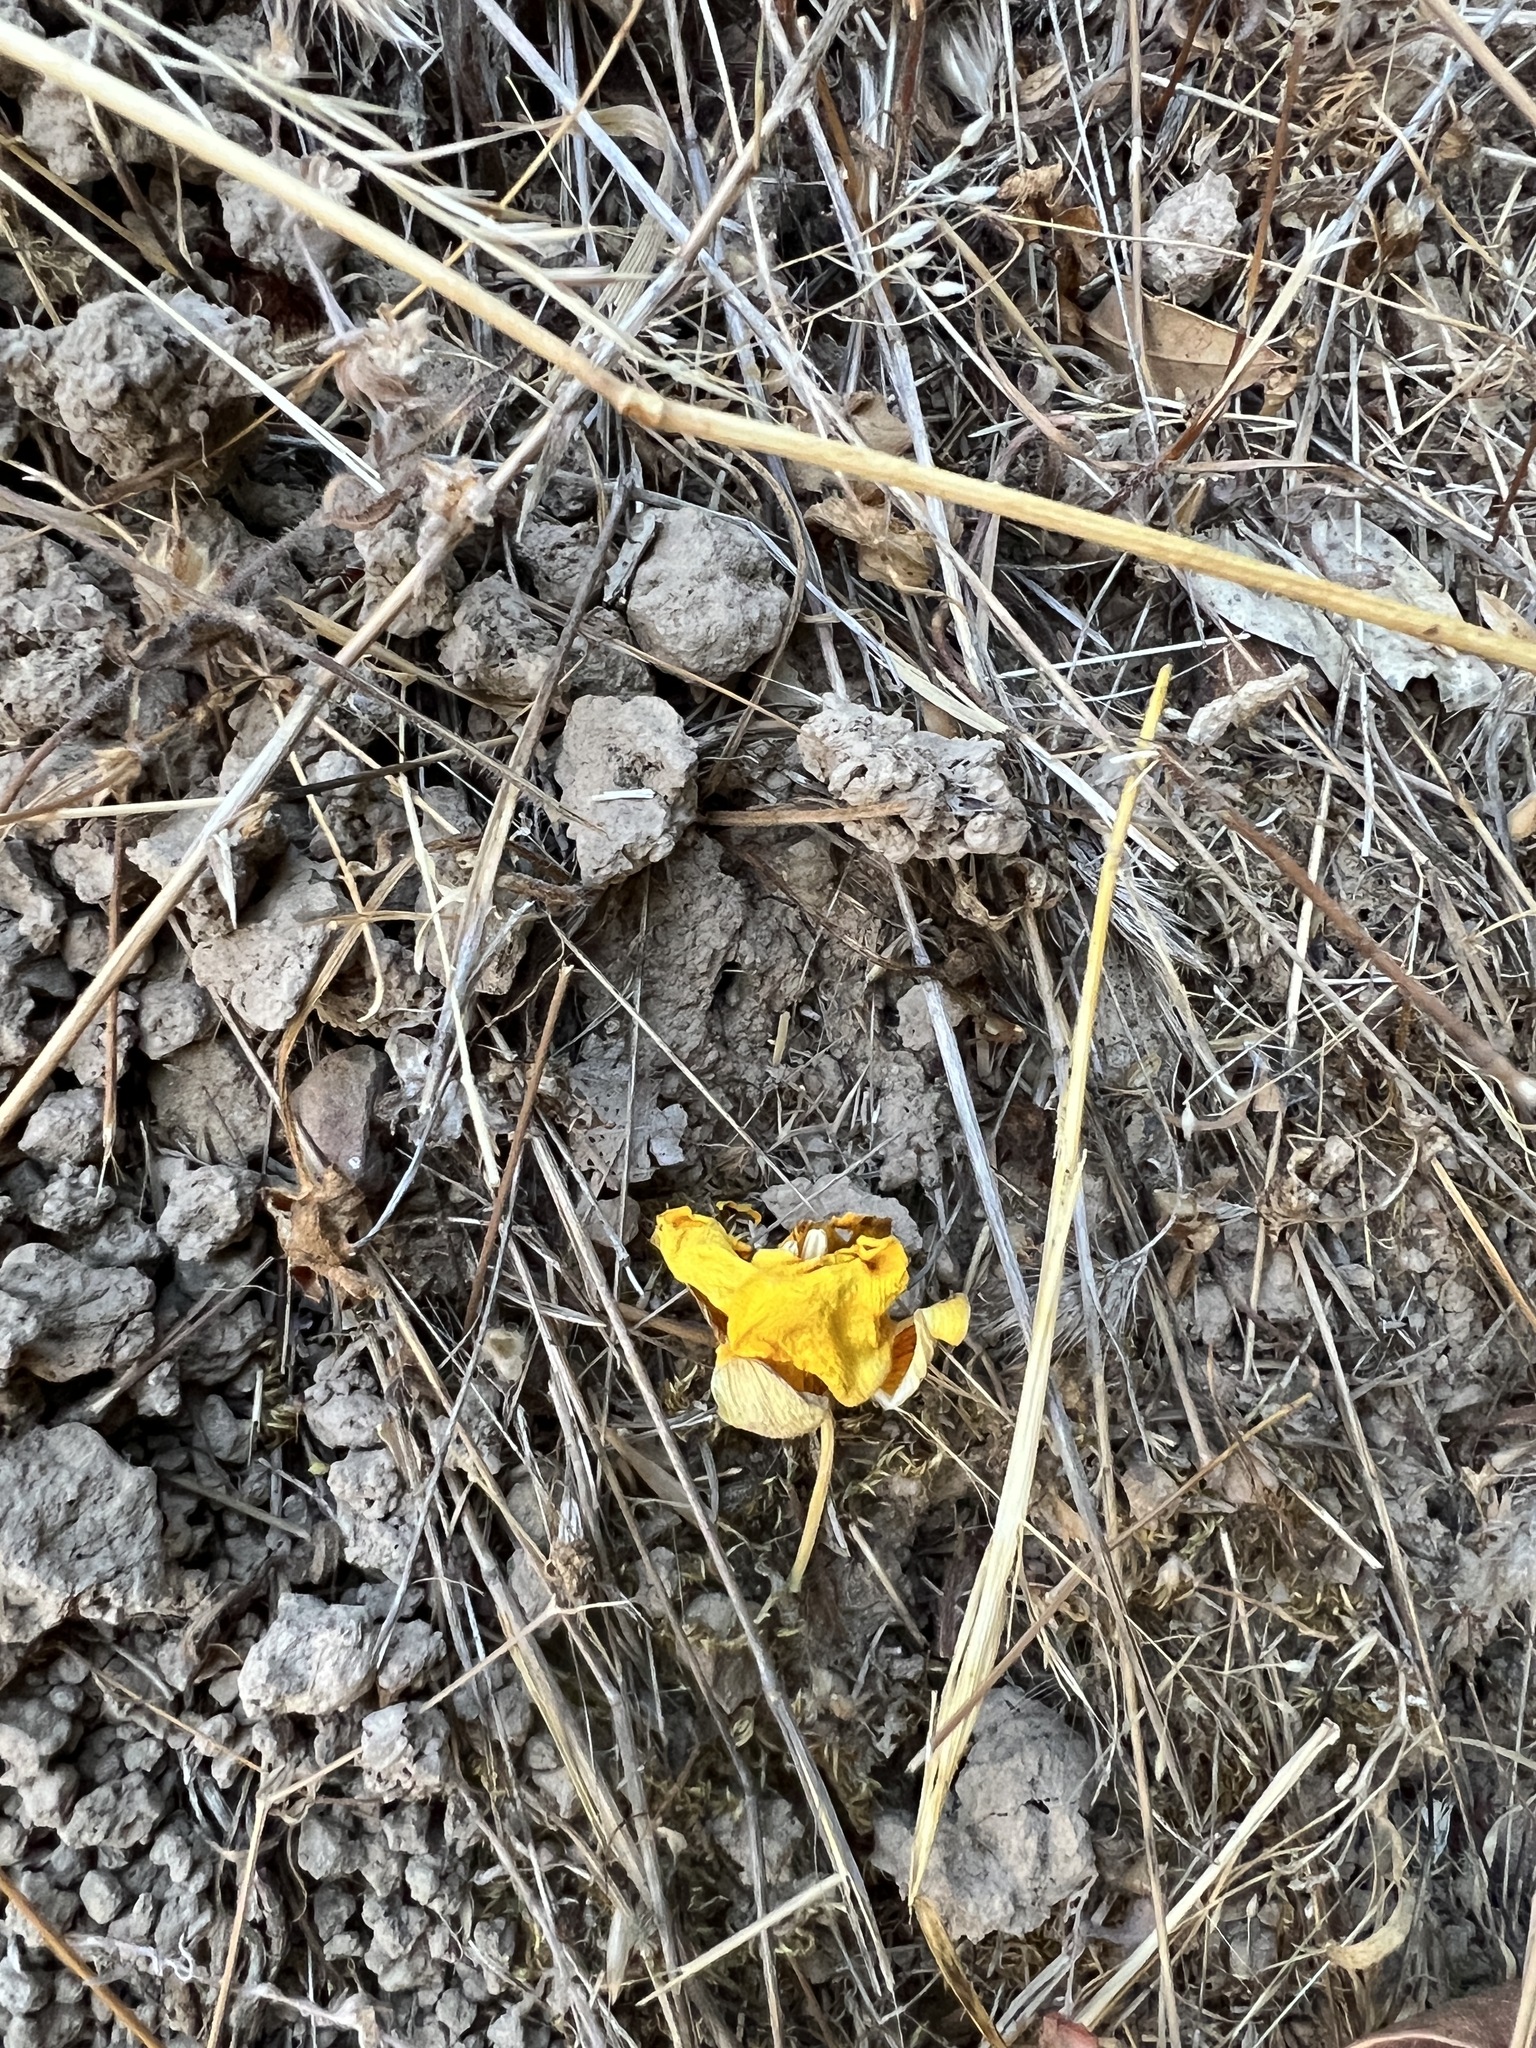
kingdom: Plantae
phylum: Tracheophyta
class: Liliopsida
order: Liliales
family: Liliaceae
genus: Calochortus
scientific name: Calochortus luteus
